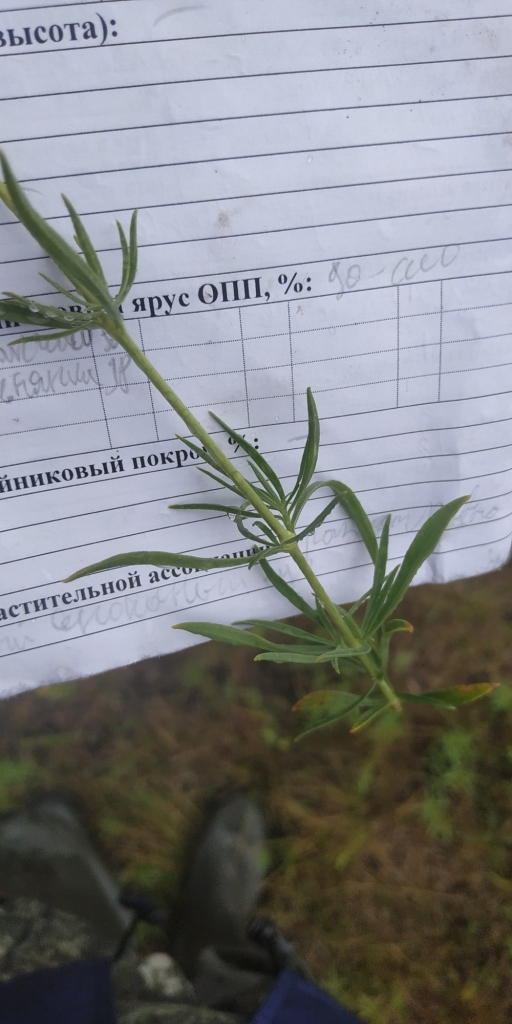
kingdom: Plantae
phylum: Tracheophyta
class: Magnoliopsida
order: Caryophyllales
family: Caryophyllaceae
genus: Silene
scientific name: Silene sibirica
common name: Siberian catchfly
